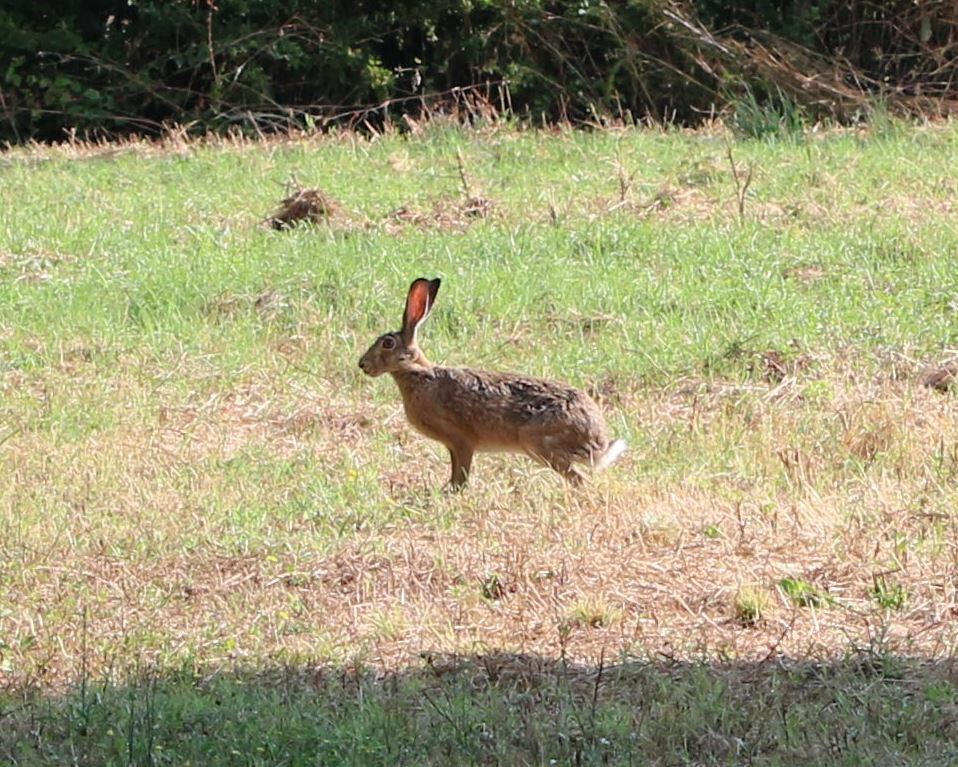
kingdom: Animalia
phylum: Chordata
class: Mammalia
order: Lagomorpha
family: Leporidae
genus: Lepus
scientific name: Lepus europaeus
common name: European hare
